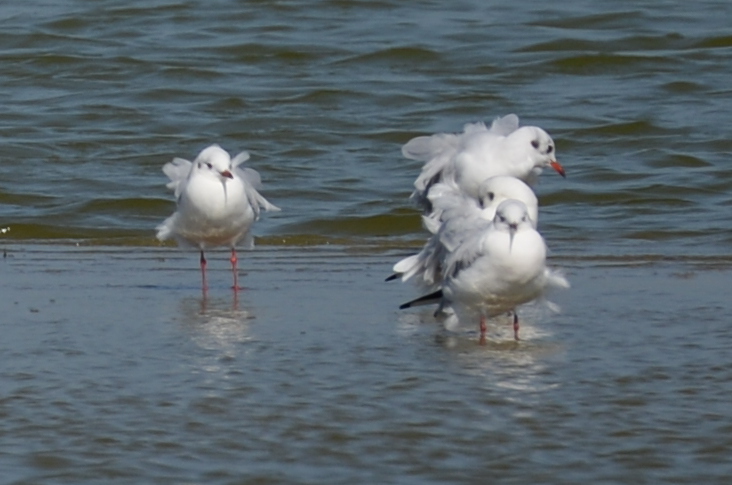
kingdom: Animalia
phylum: Chordata
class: Aves
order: Charadriiformes
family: Laridae
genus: Chroicocephalus
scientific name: Chroicocephalus ridibundus
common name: Black-headed gull
